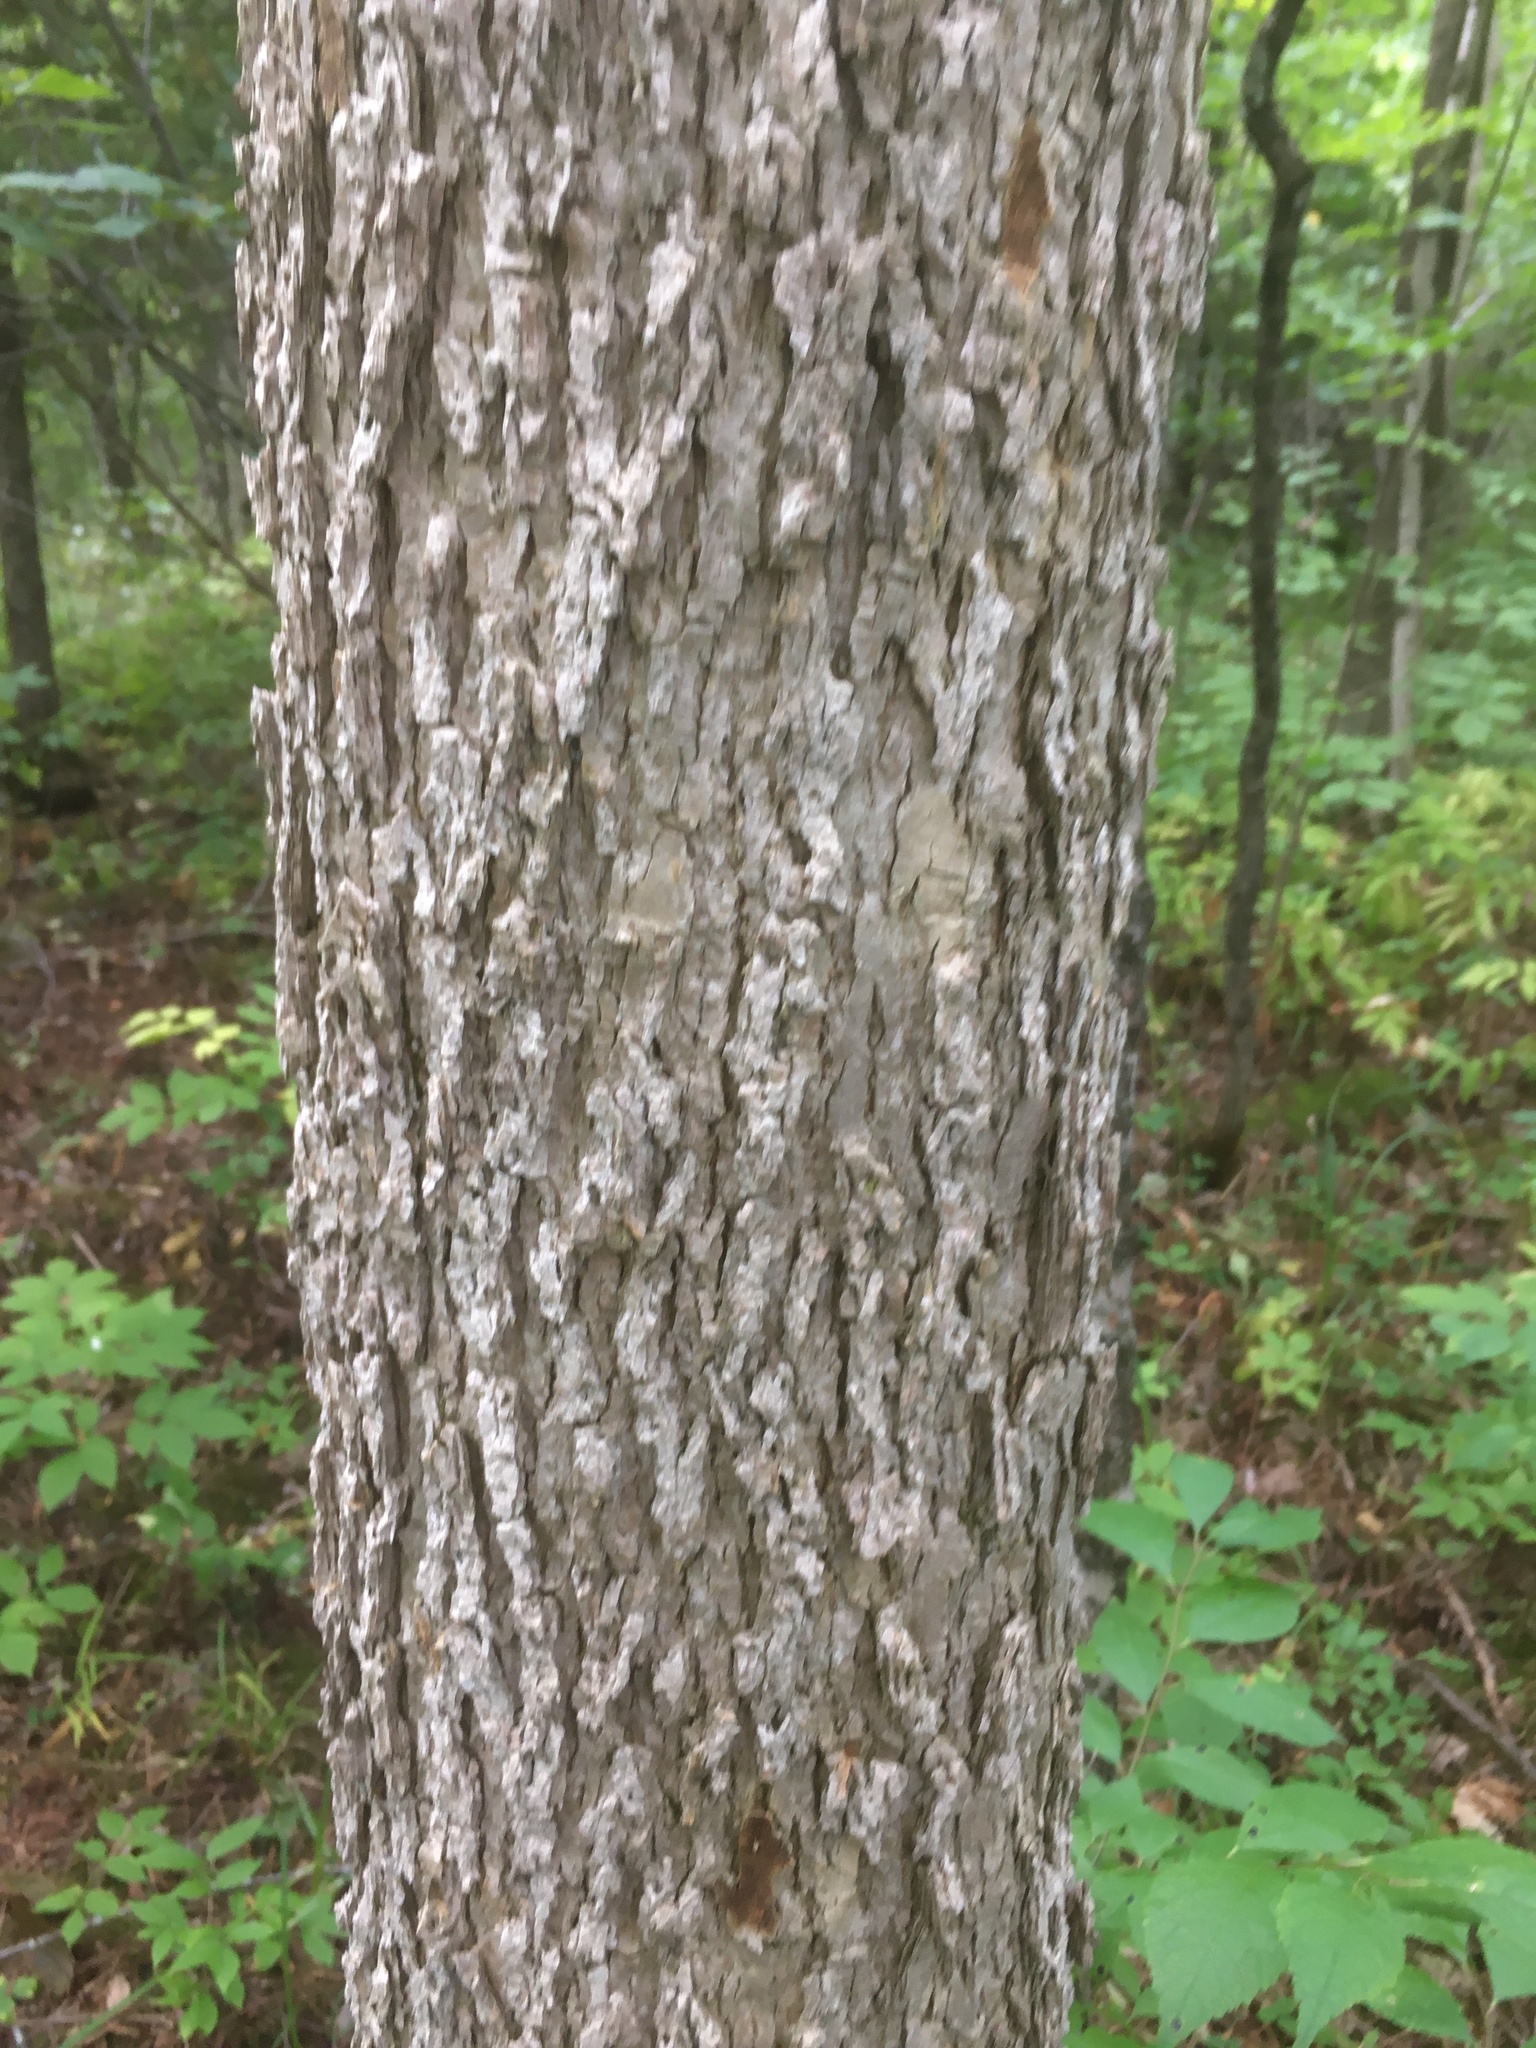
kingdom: Plantae
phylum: Tracheophyta
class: Magnoliopsida
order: Lamiales
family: Oleaceae
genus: Fraxinus
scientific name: Fraxinus nigra
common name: Black ash
